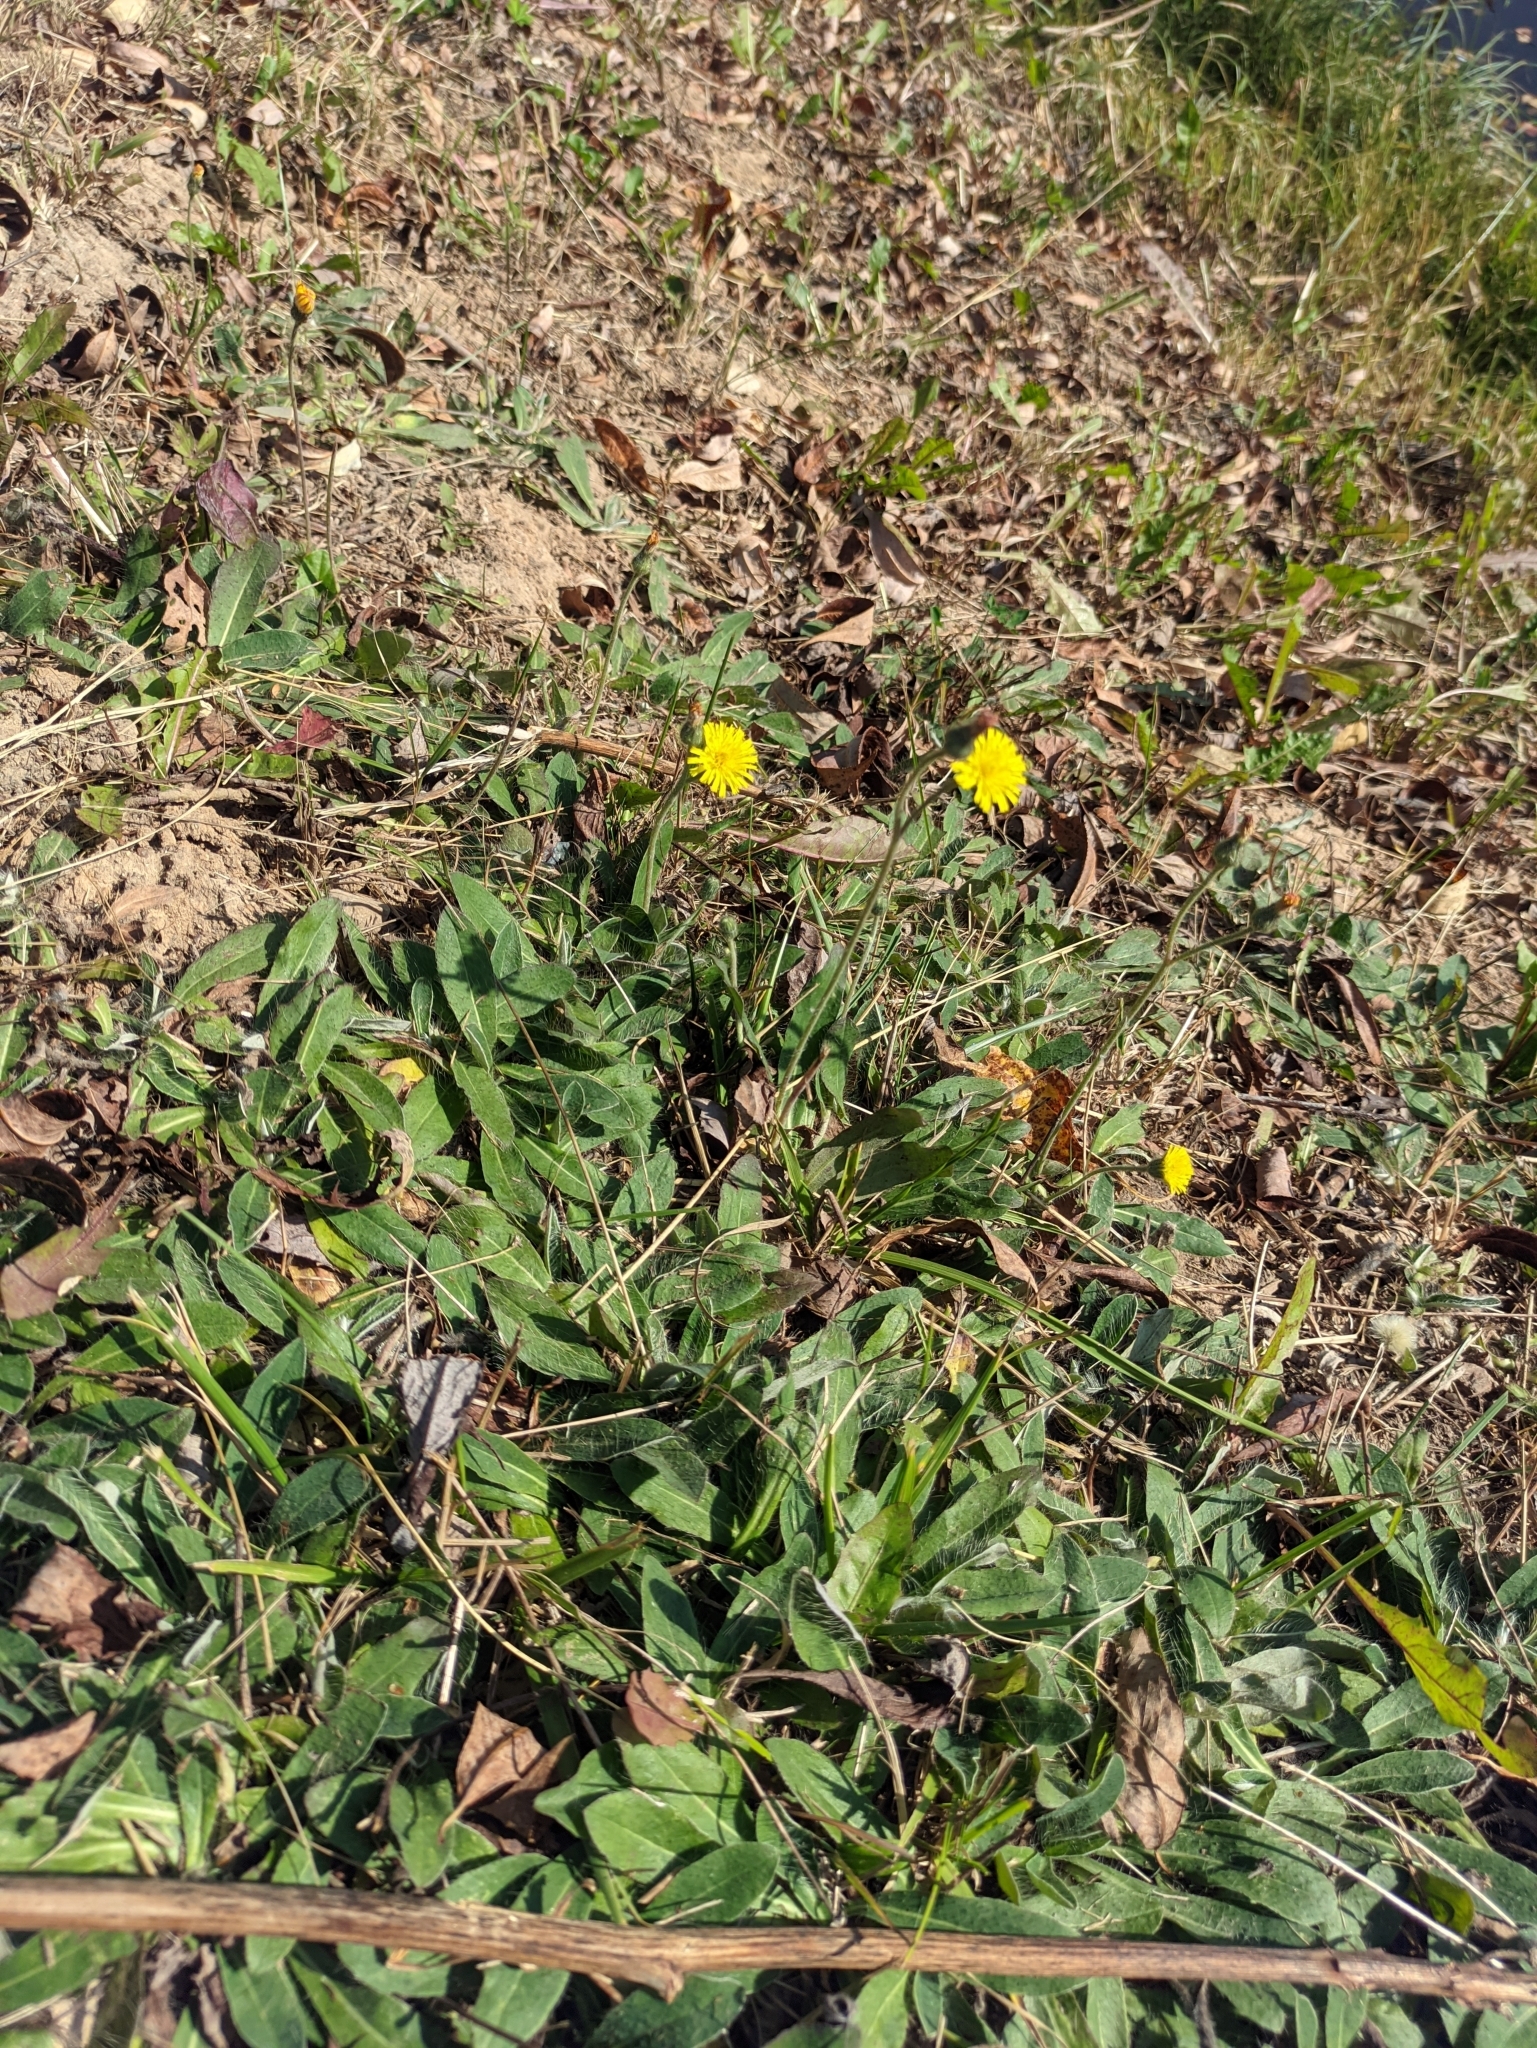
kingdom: Plantae
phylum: Tracheophyta
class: Magnoliopsida
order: Asterales
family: Asteraceae
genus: Pilosella
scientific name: Pilosella officinarum
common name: Mouse-ear hawkweed
